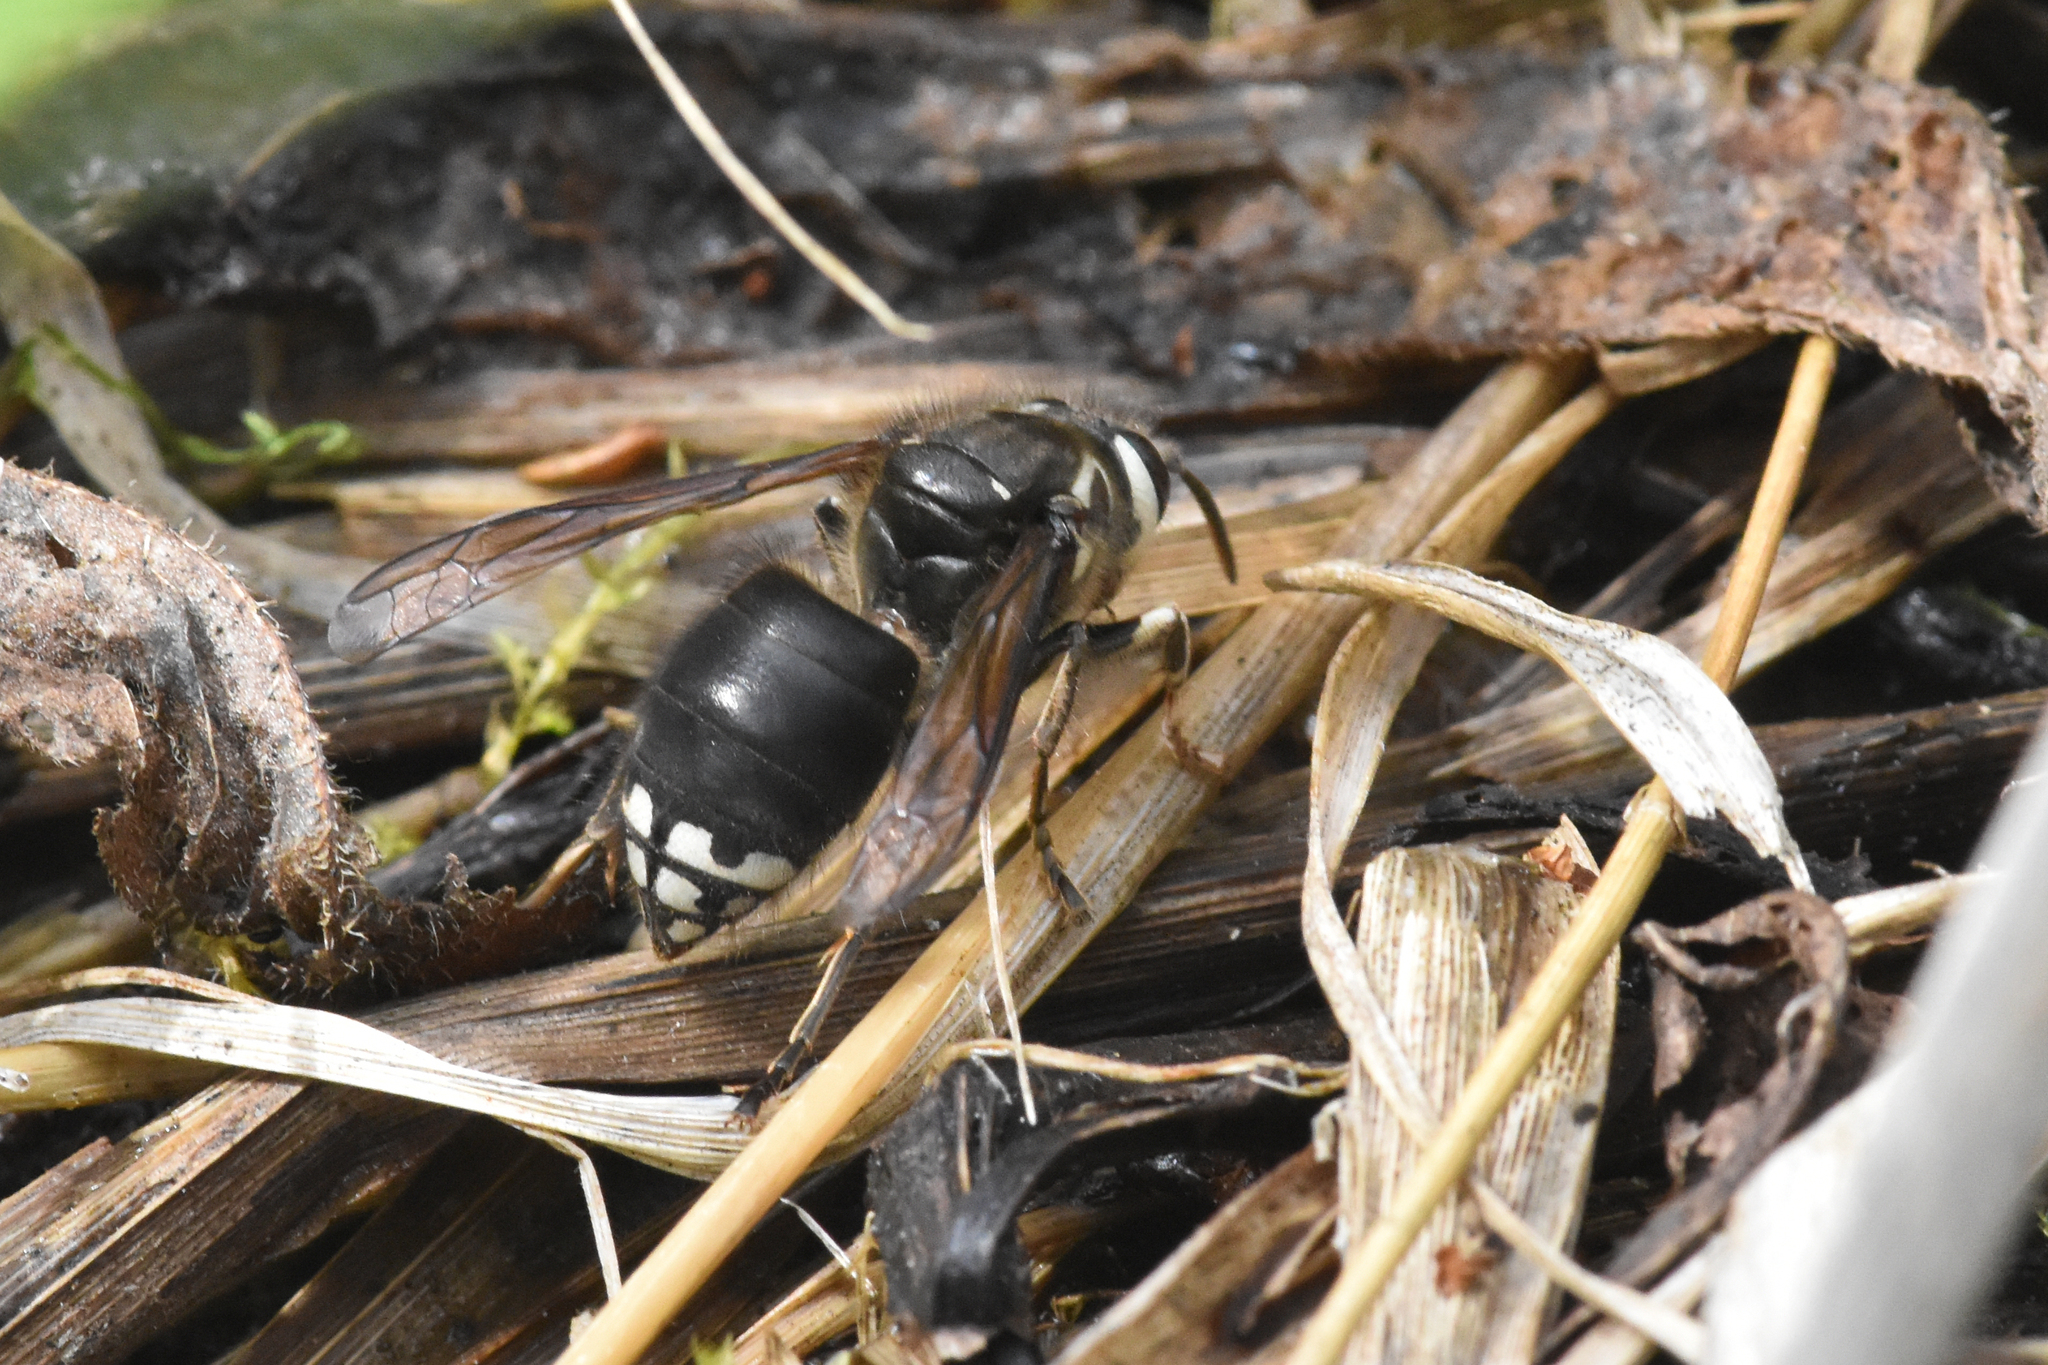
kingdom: Animalia
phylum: Arthropoda
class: Insecta
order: Hymenoptera
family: Vespidae
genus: Dolichovespula
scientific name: Dolichovespula maculata
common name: Bald-faced hornet
